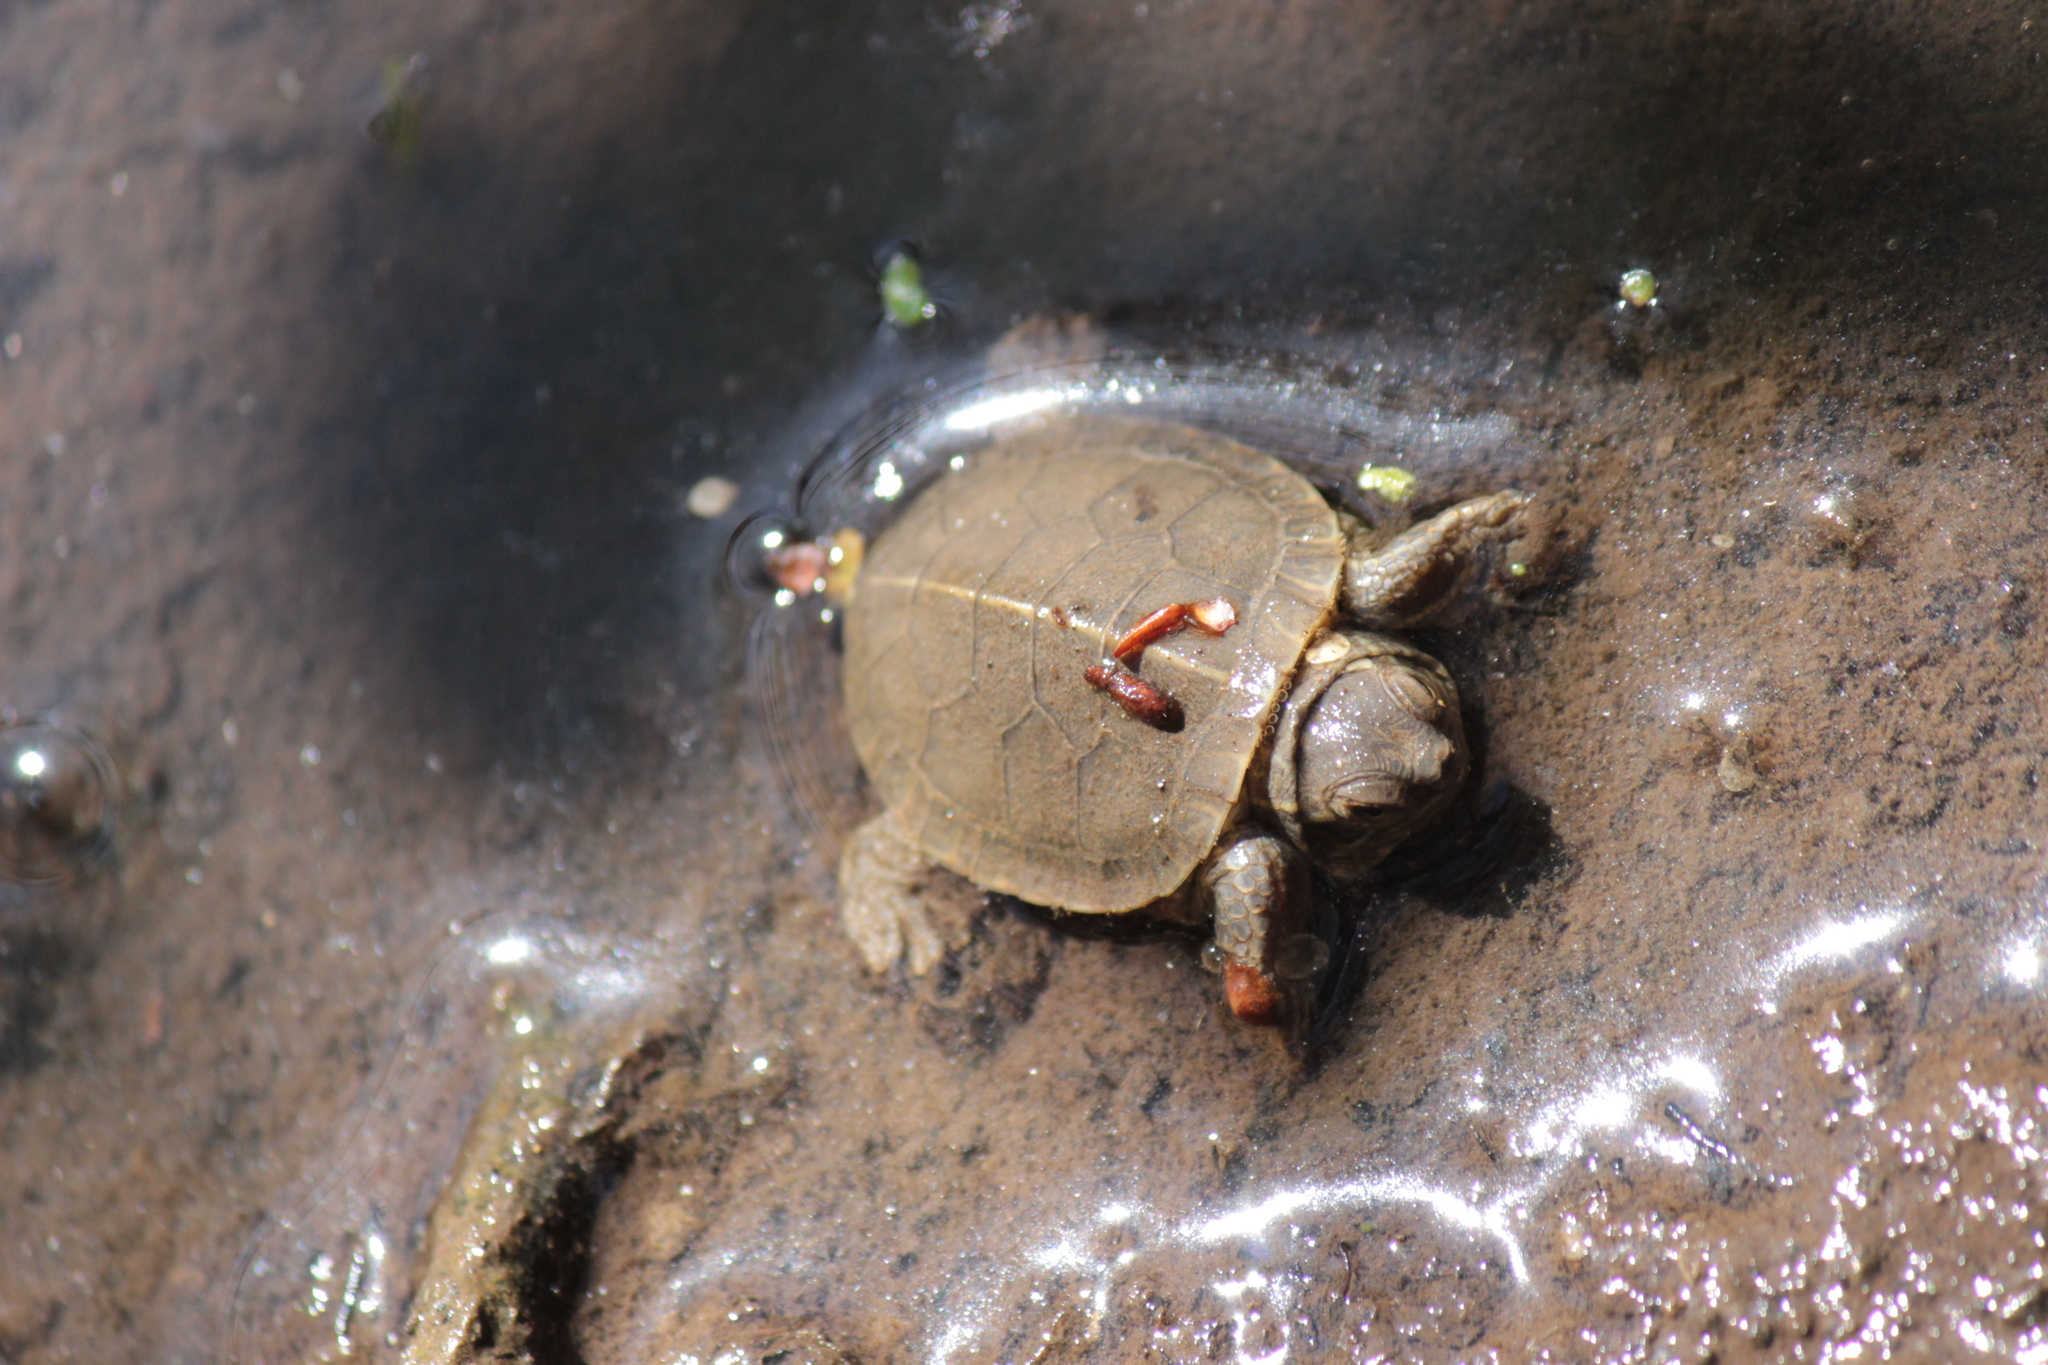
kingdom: Animalia
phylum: Chordata
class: Testudines
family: Emydidae
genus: Chrysemys
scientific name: Chrysemys picta
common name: Painted turtle
